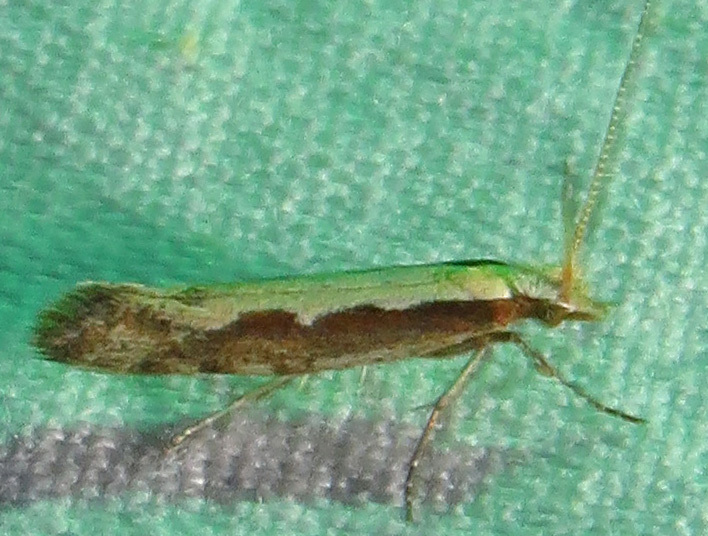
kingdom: Animalia
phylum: Arthropoda
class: Insecta
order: Lepidoptera
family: Plutellidae
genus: Plutella
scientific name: Plutella xylostella
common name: Diamond-back moth
